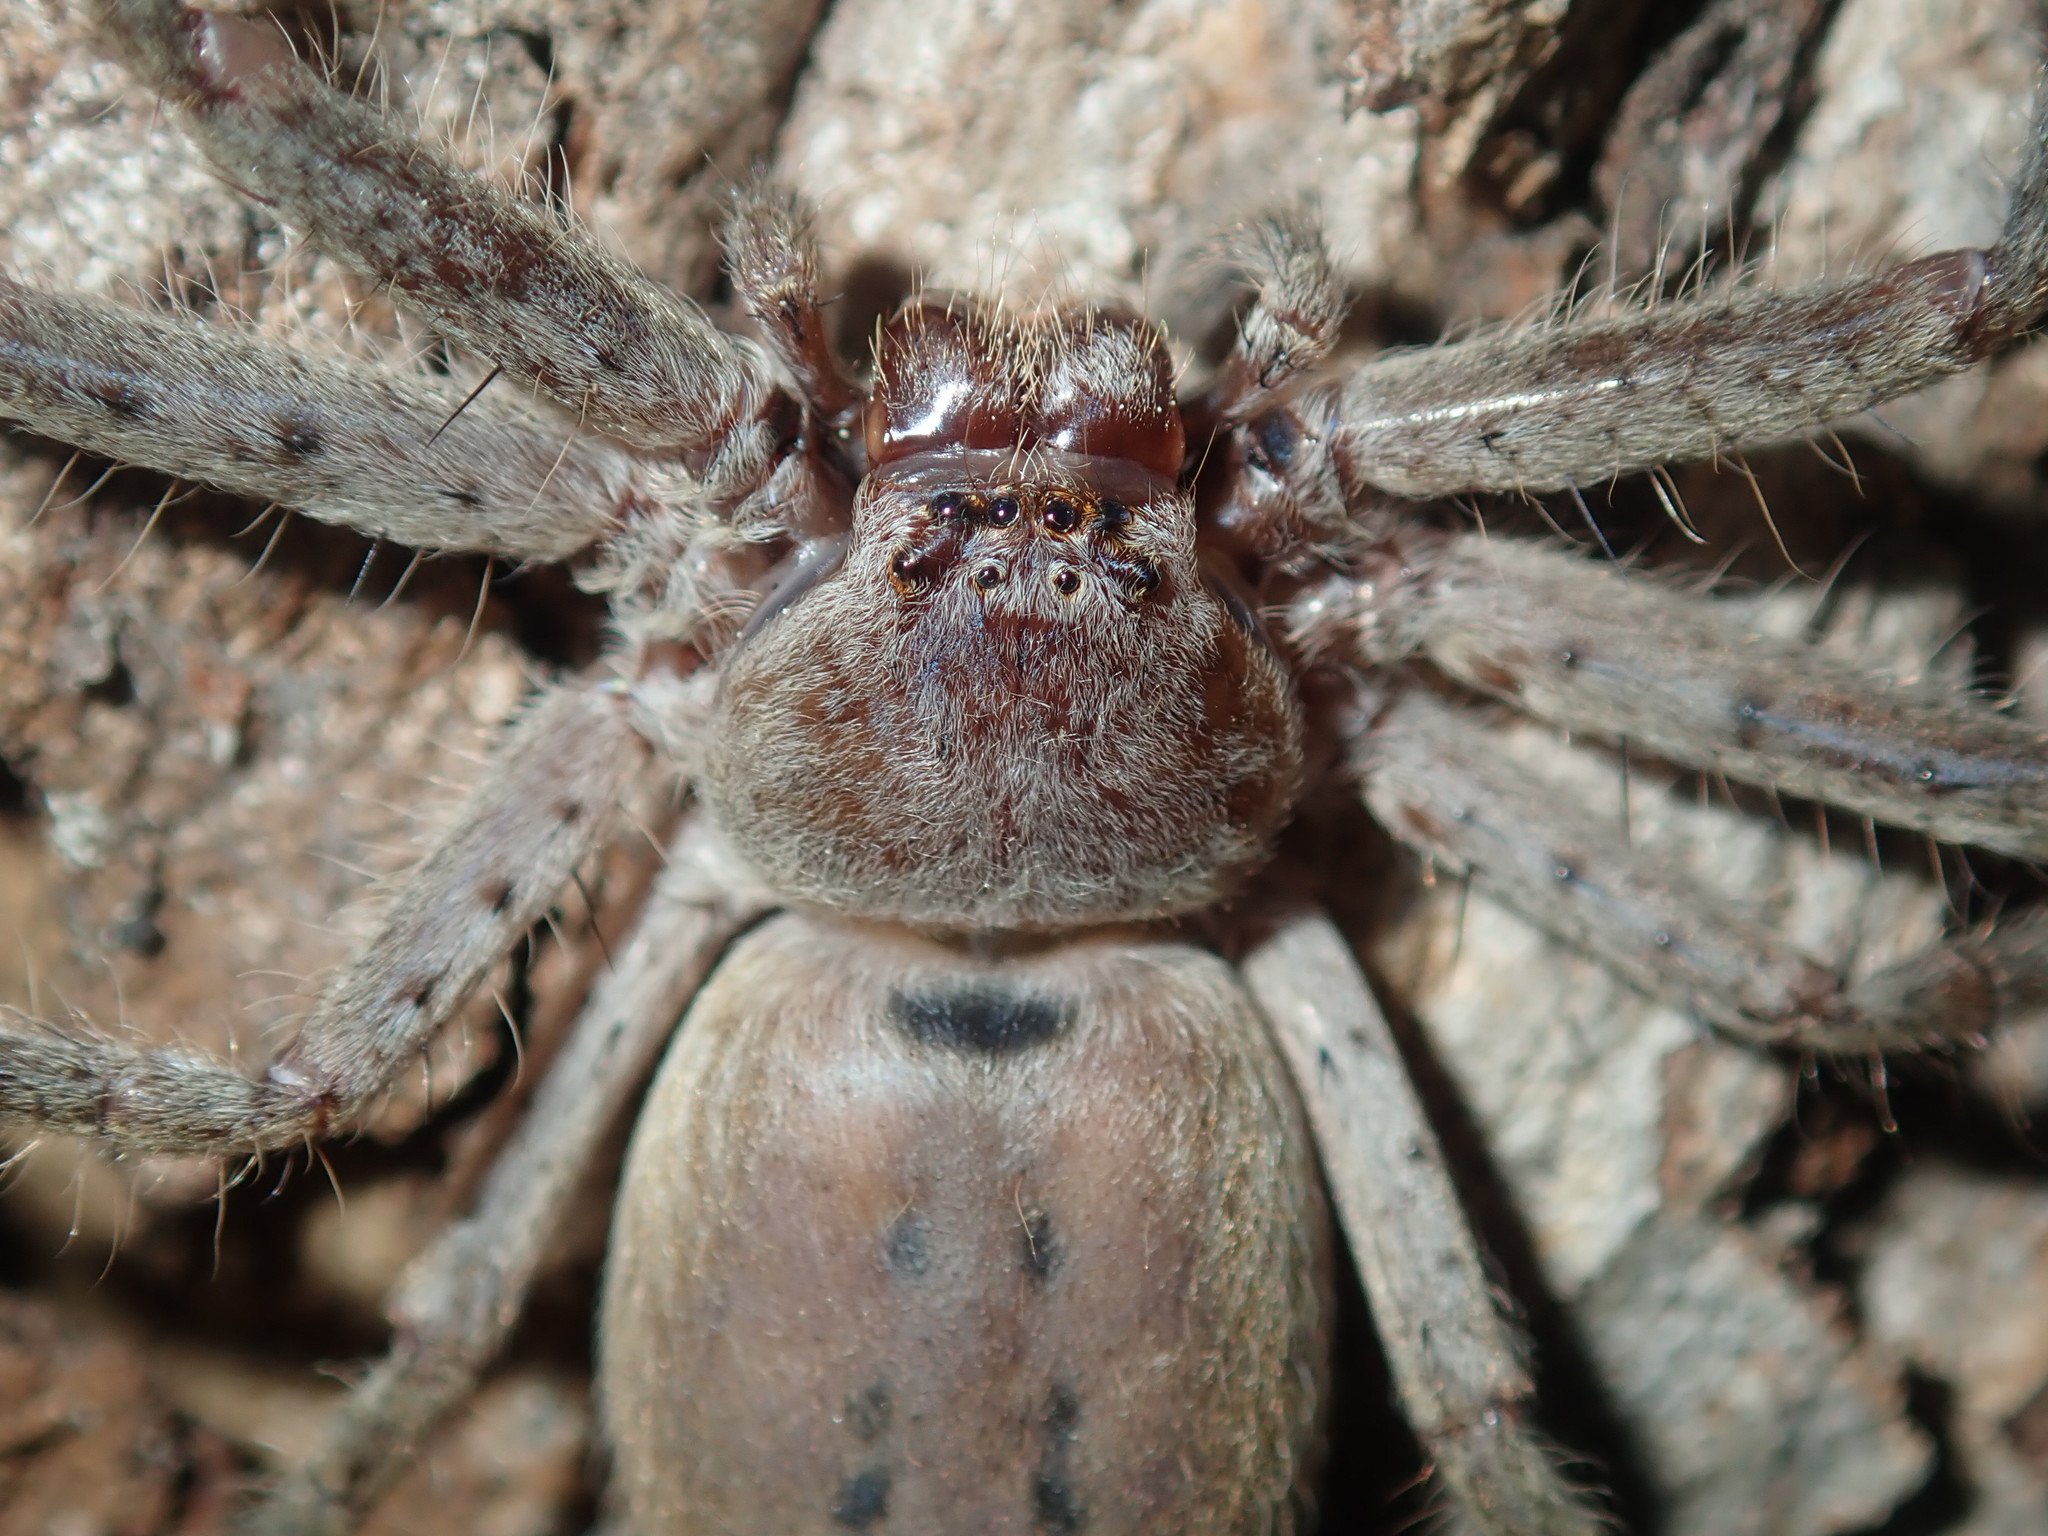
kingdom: Animalia
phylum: Arthropoda
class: Arachnida
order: Araneae
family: Sparassidae
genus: Isopeda
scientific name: Isopeda villosa
